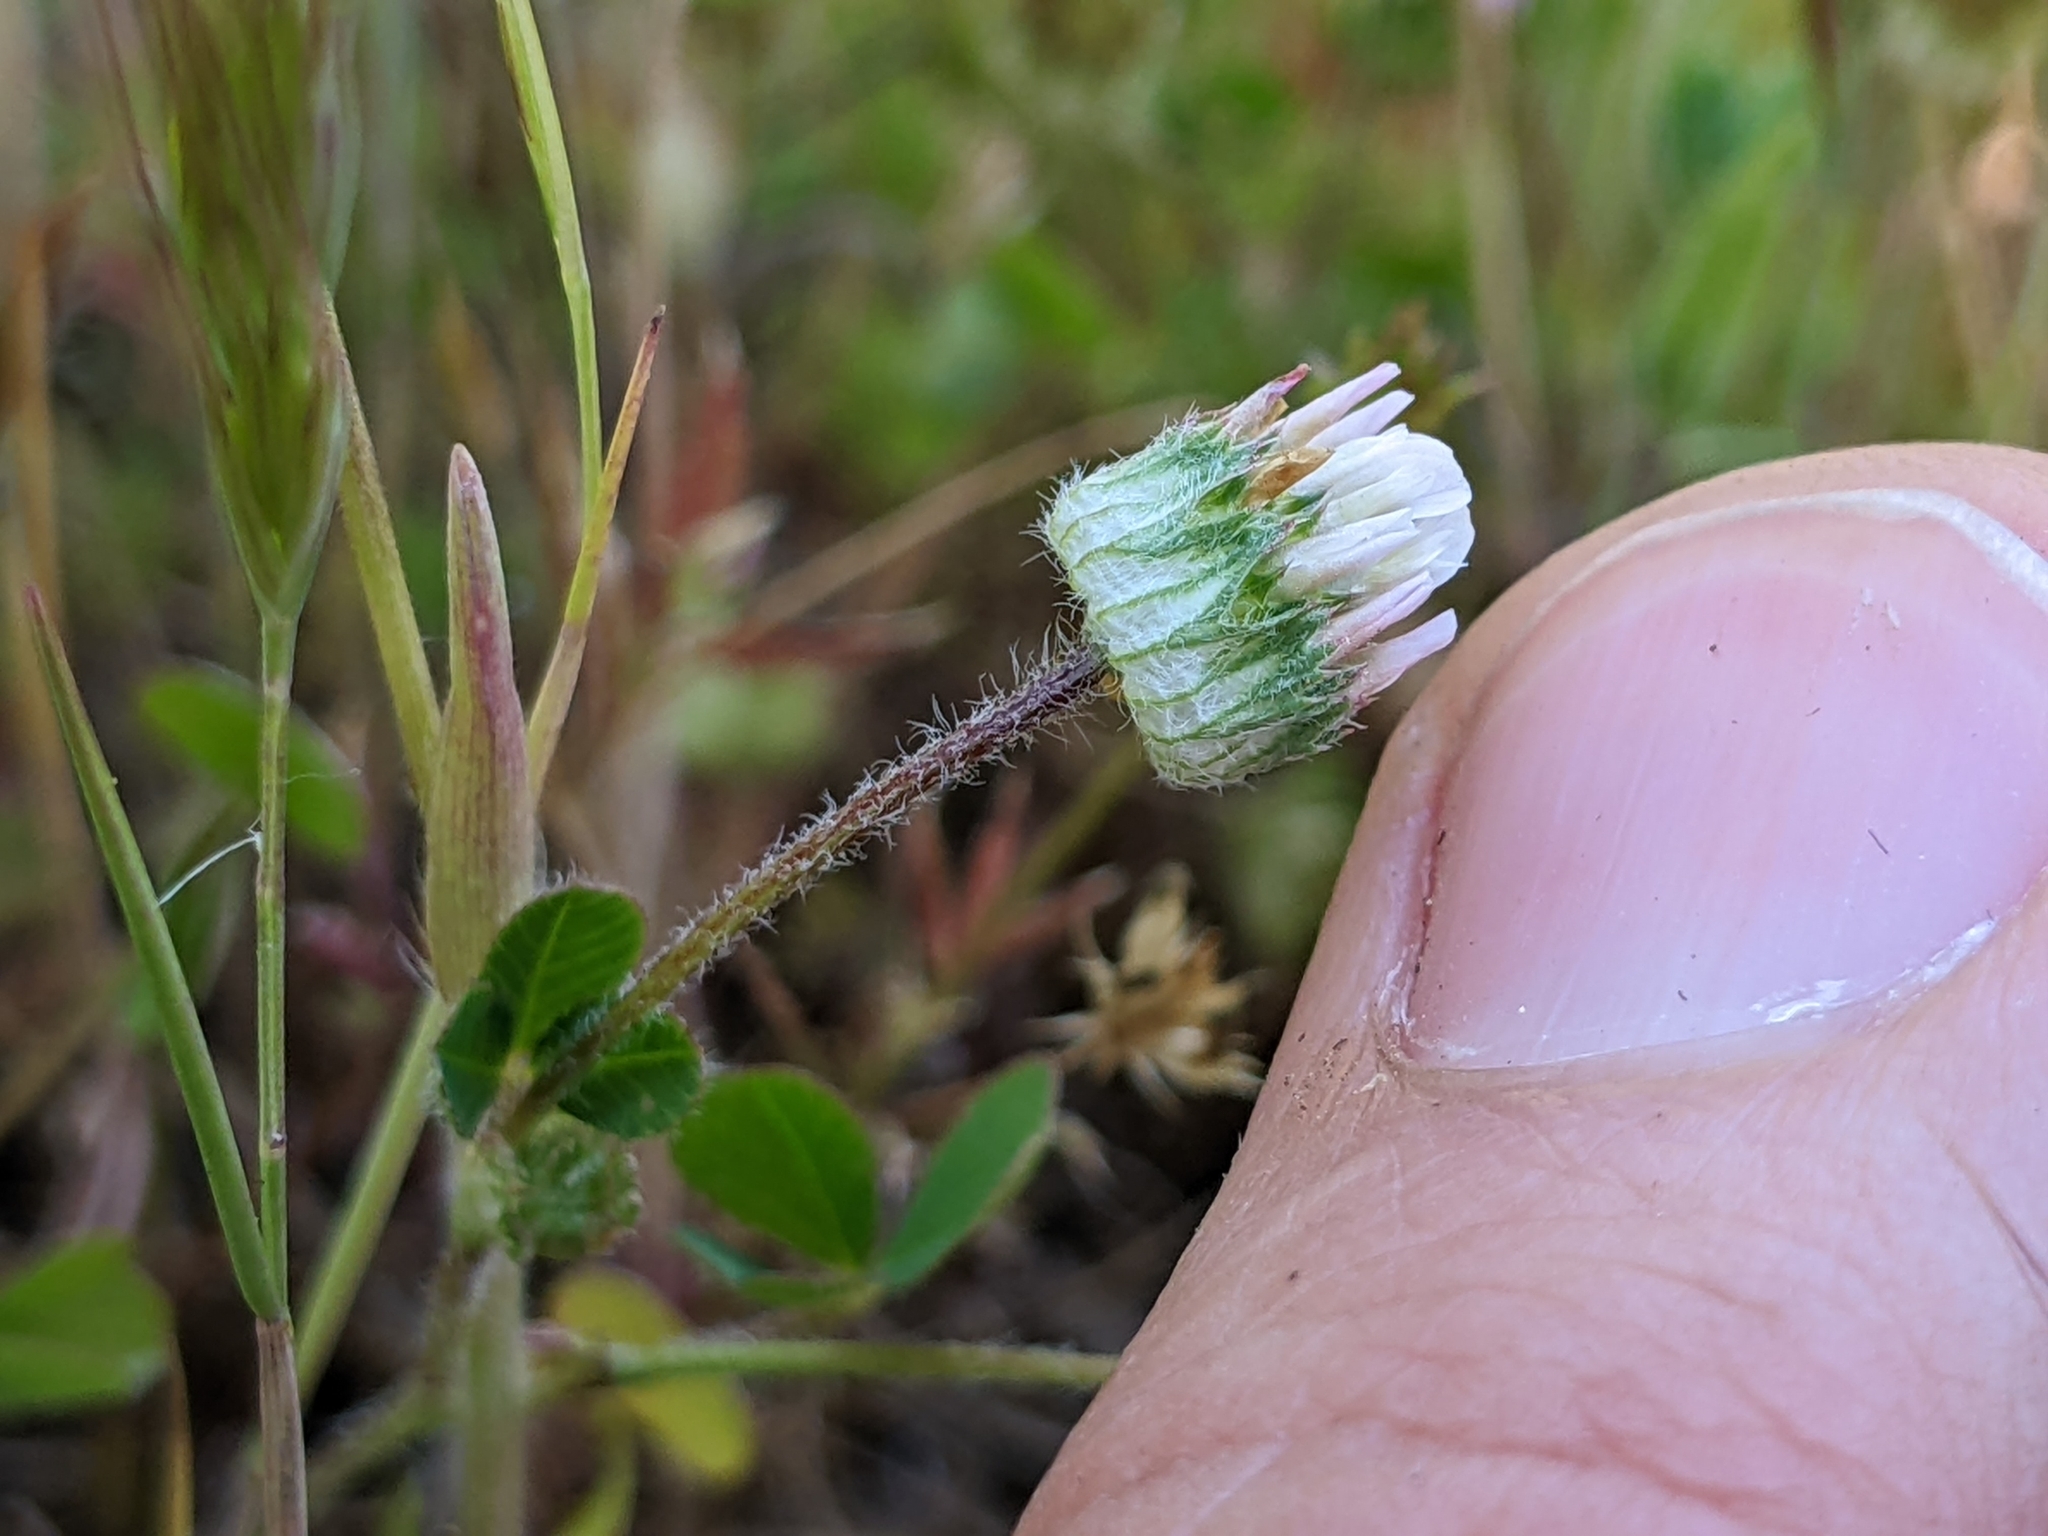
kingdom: Plantae
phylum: Tracheophyta
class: Magnoliopsida
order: Fabales
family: Fabaceae
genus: Trifolium
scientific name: Trifolium microdon
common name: Thimble clover
